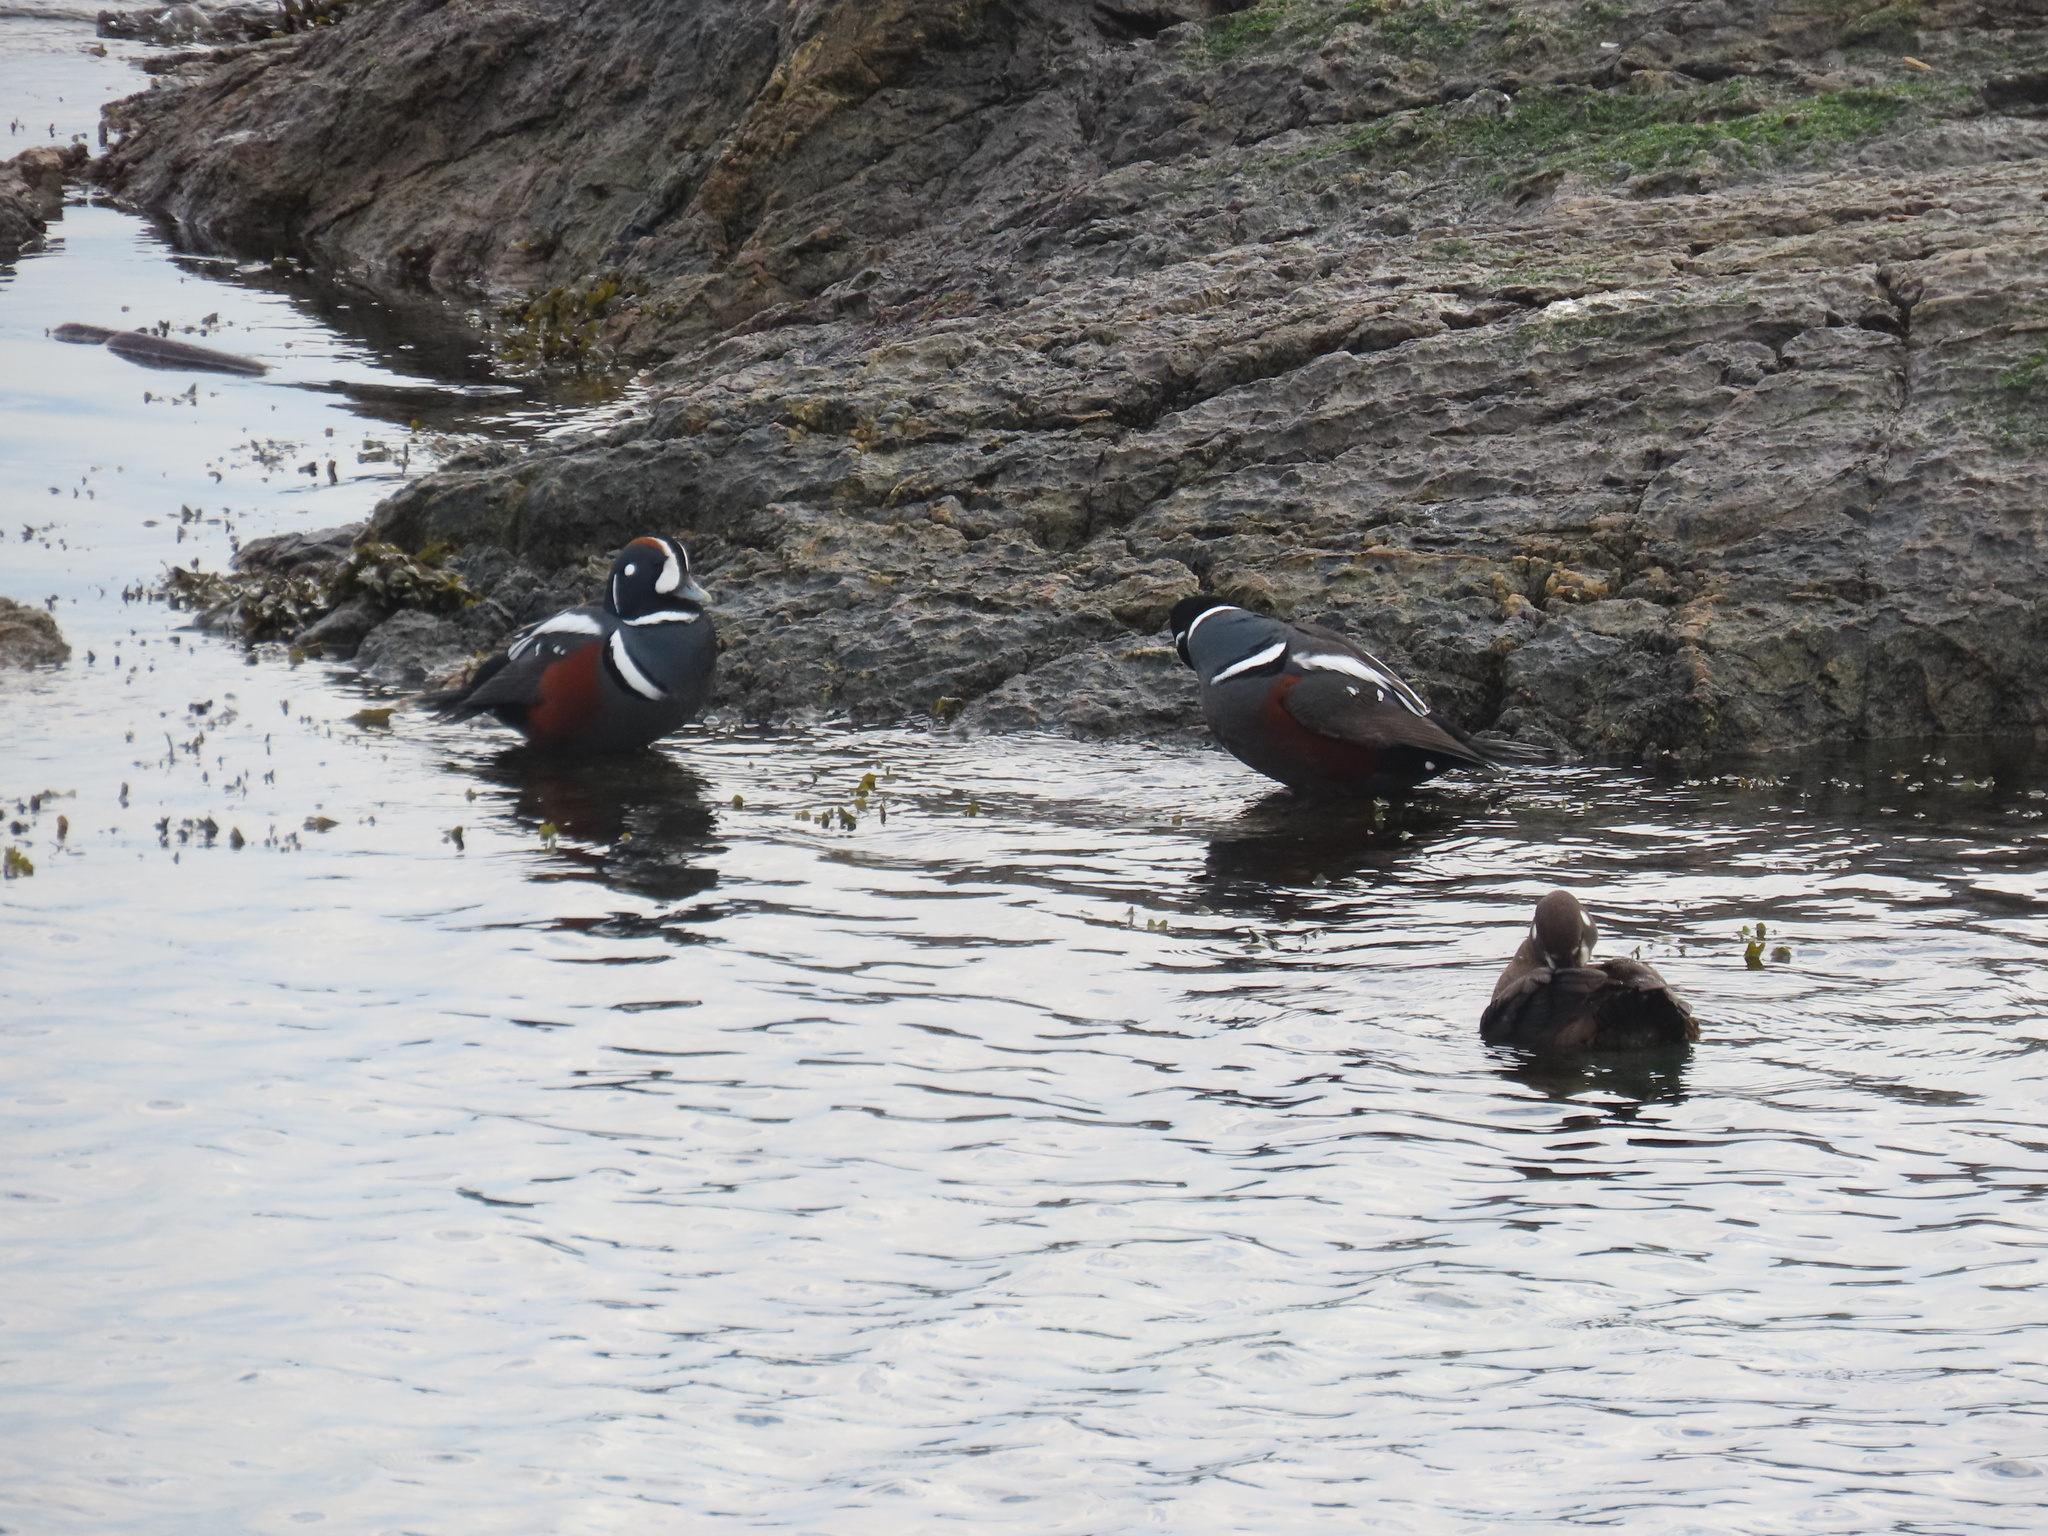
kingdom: Animalia
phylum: Chordata
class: Aves
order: Anseriformes
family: Anatidae
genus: Histrionicus
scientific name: Histrionicus histrionicus
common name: Harlequin duck
